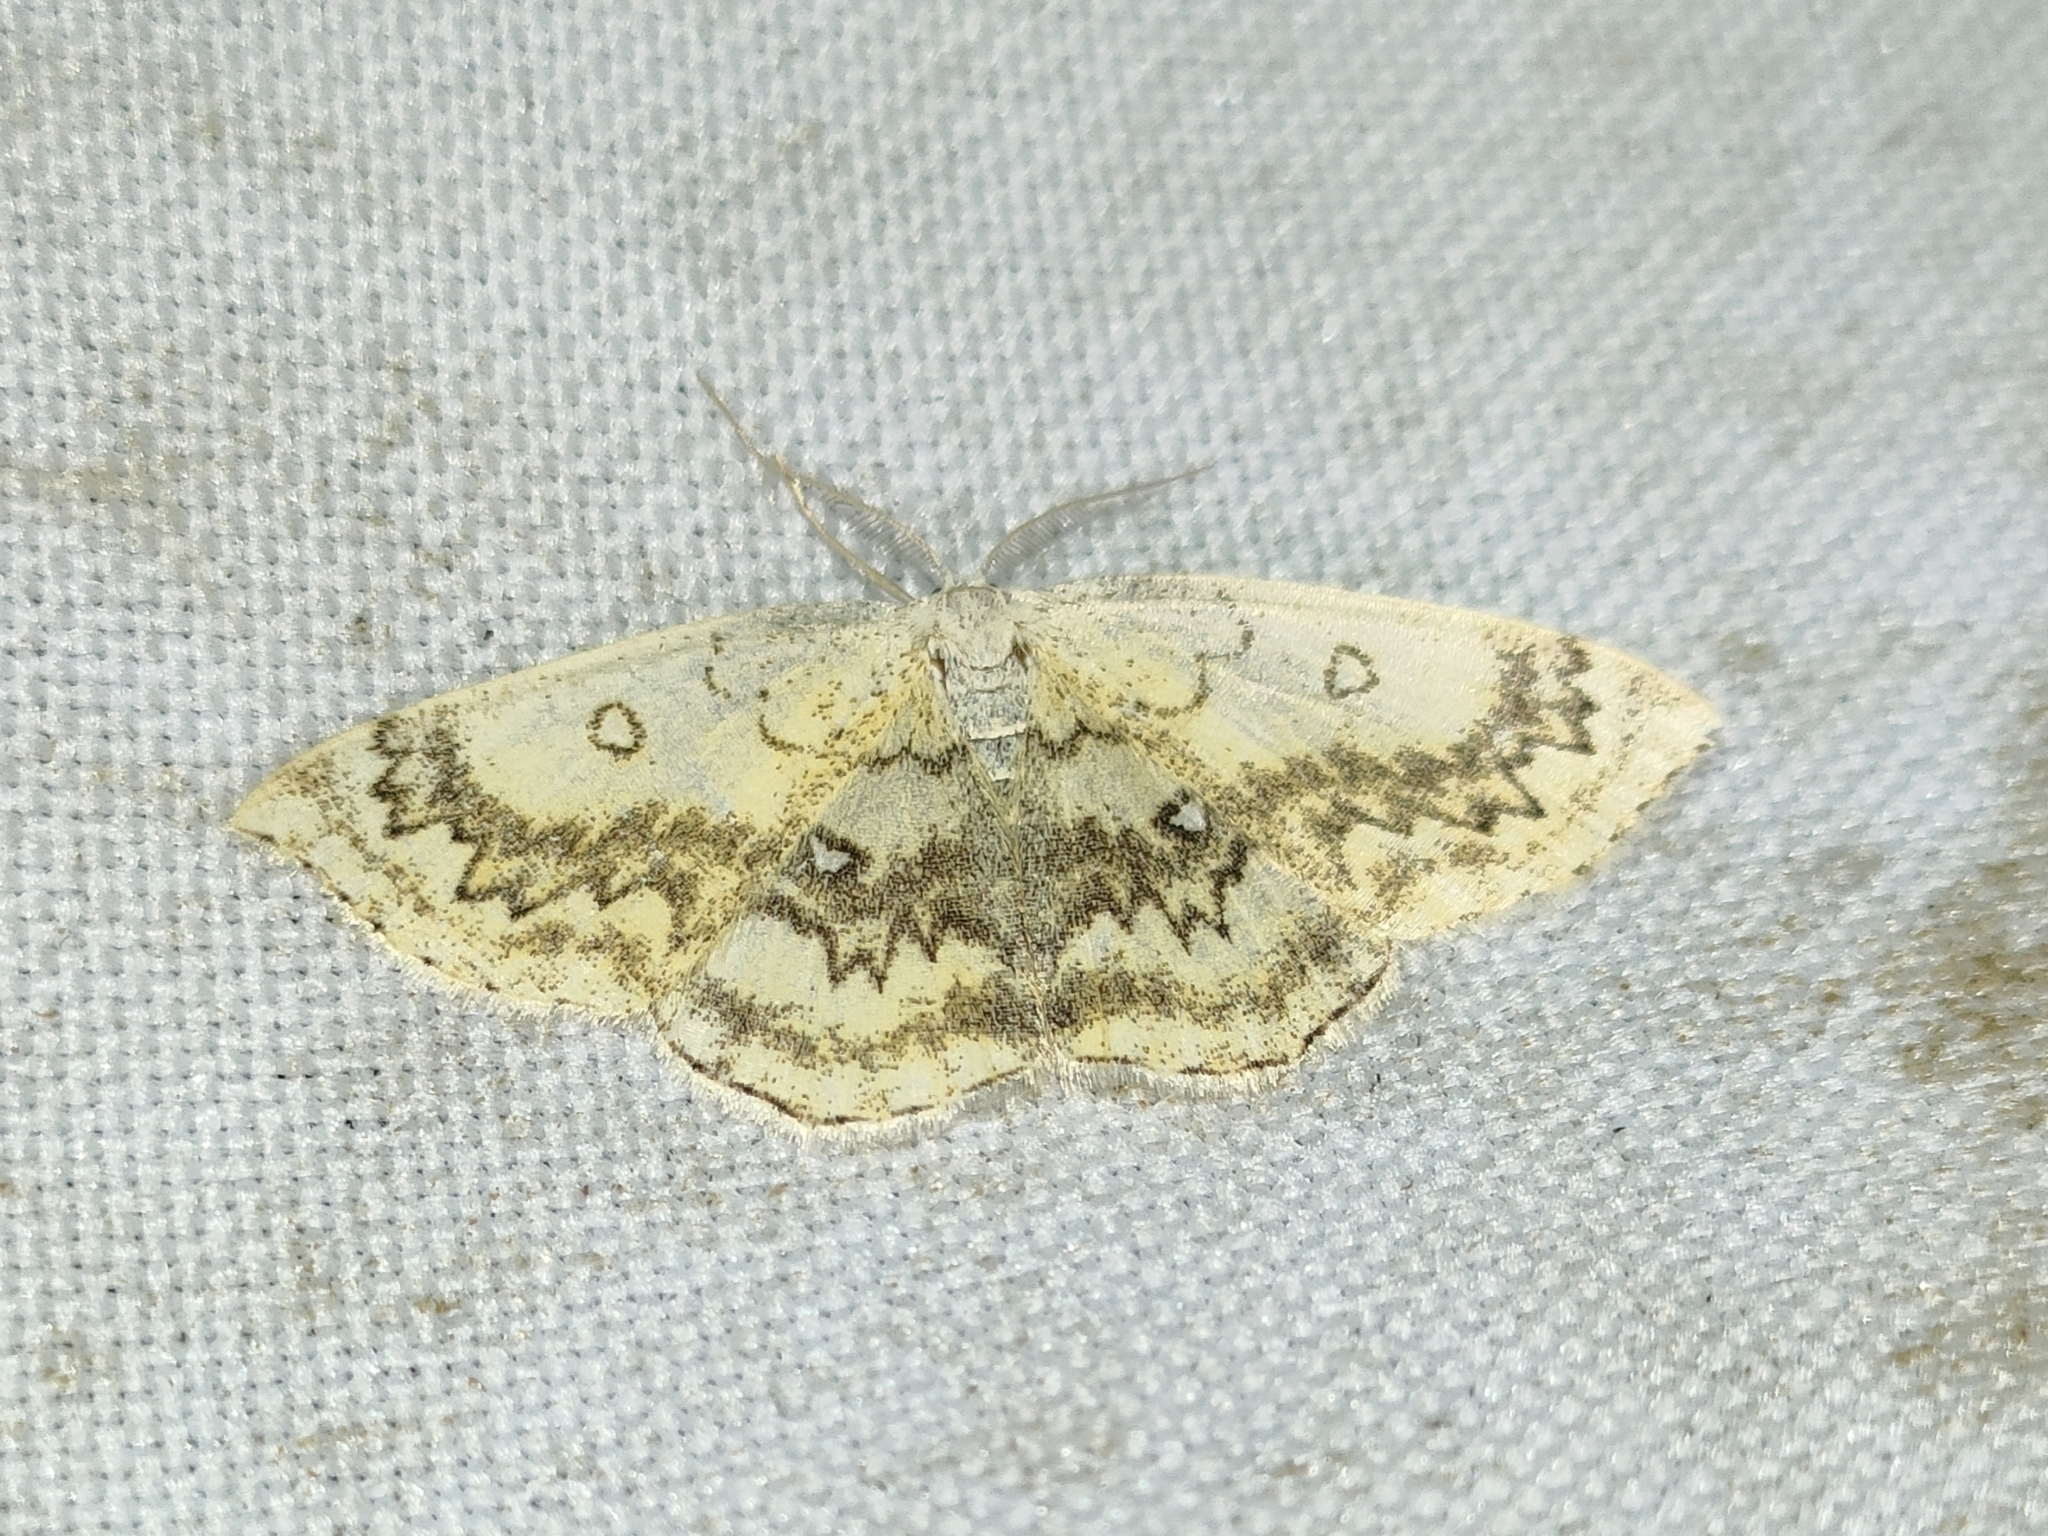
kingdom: Animalia
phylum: Arthropoda
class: Insecta
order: Lepidoptera
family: Geometridae
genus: Cyclophora
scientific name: Cyclophora annularia
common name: Mocha
